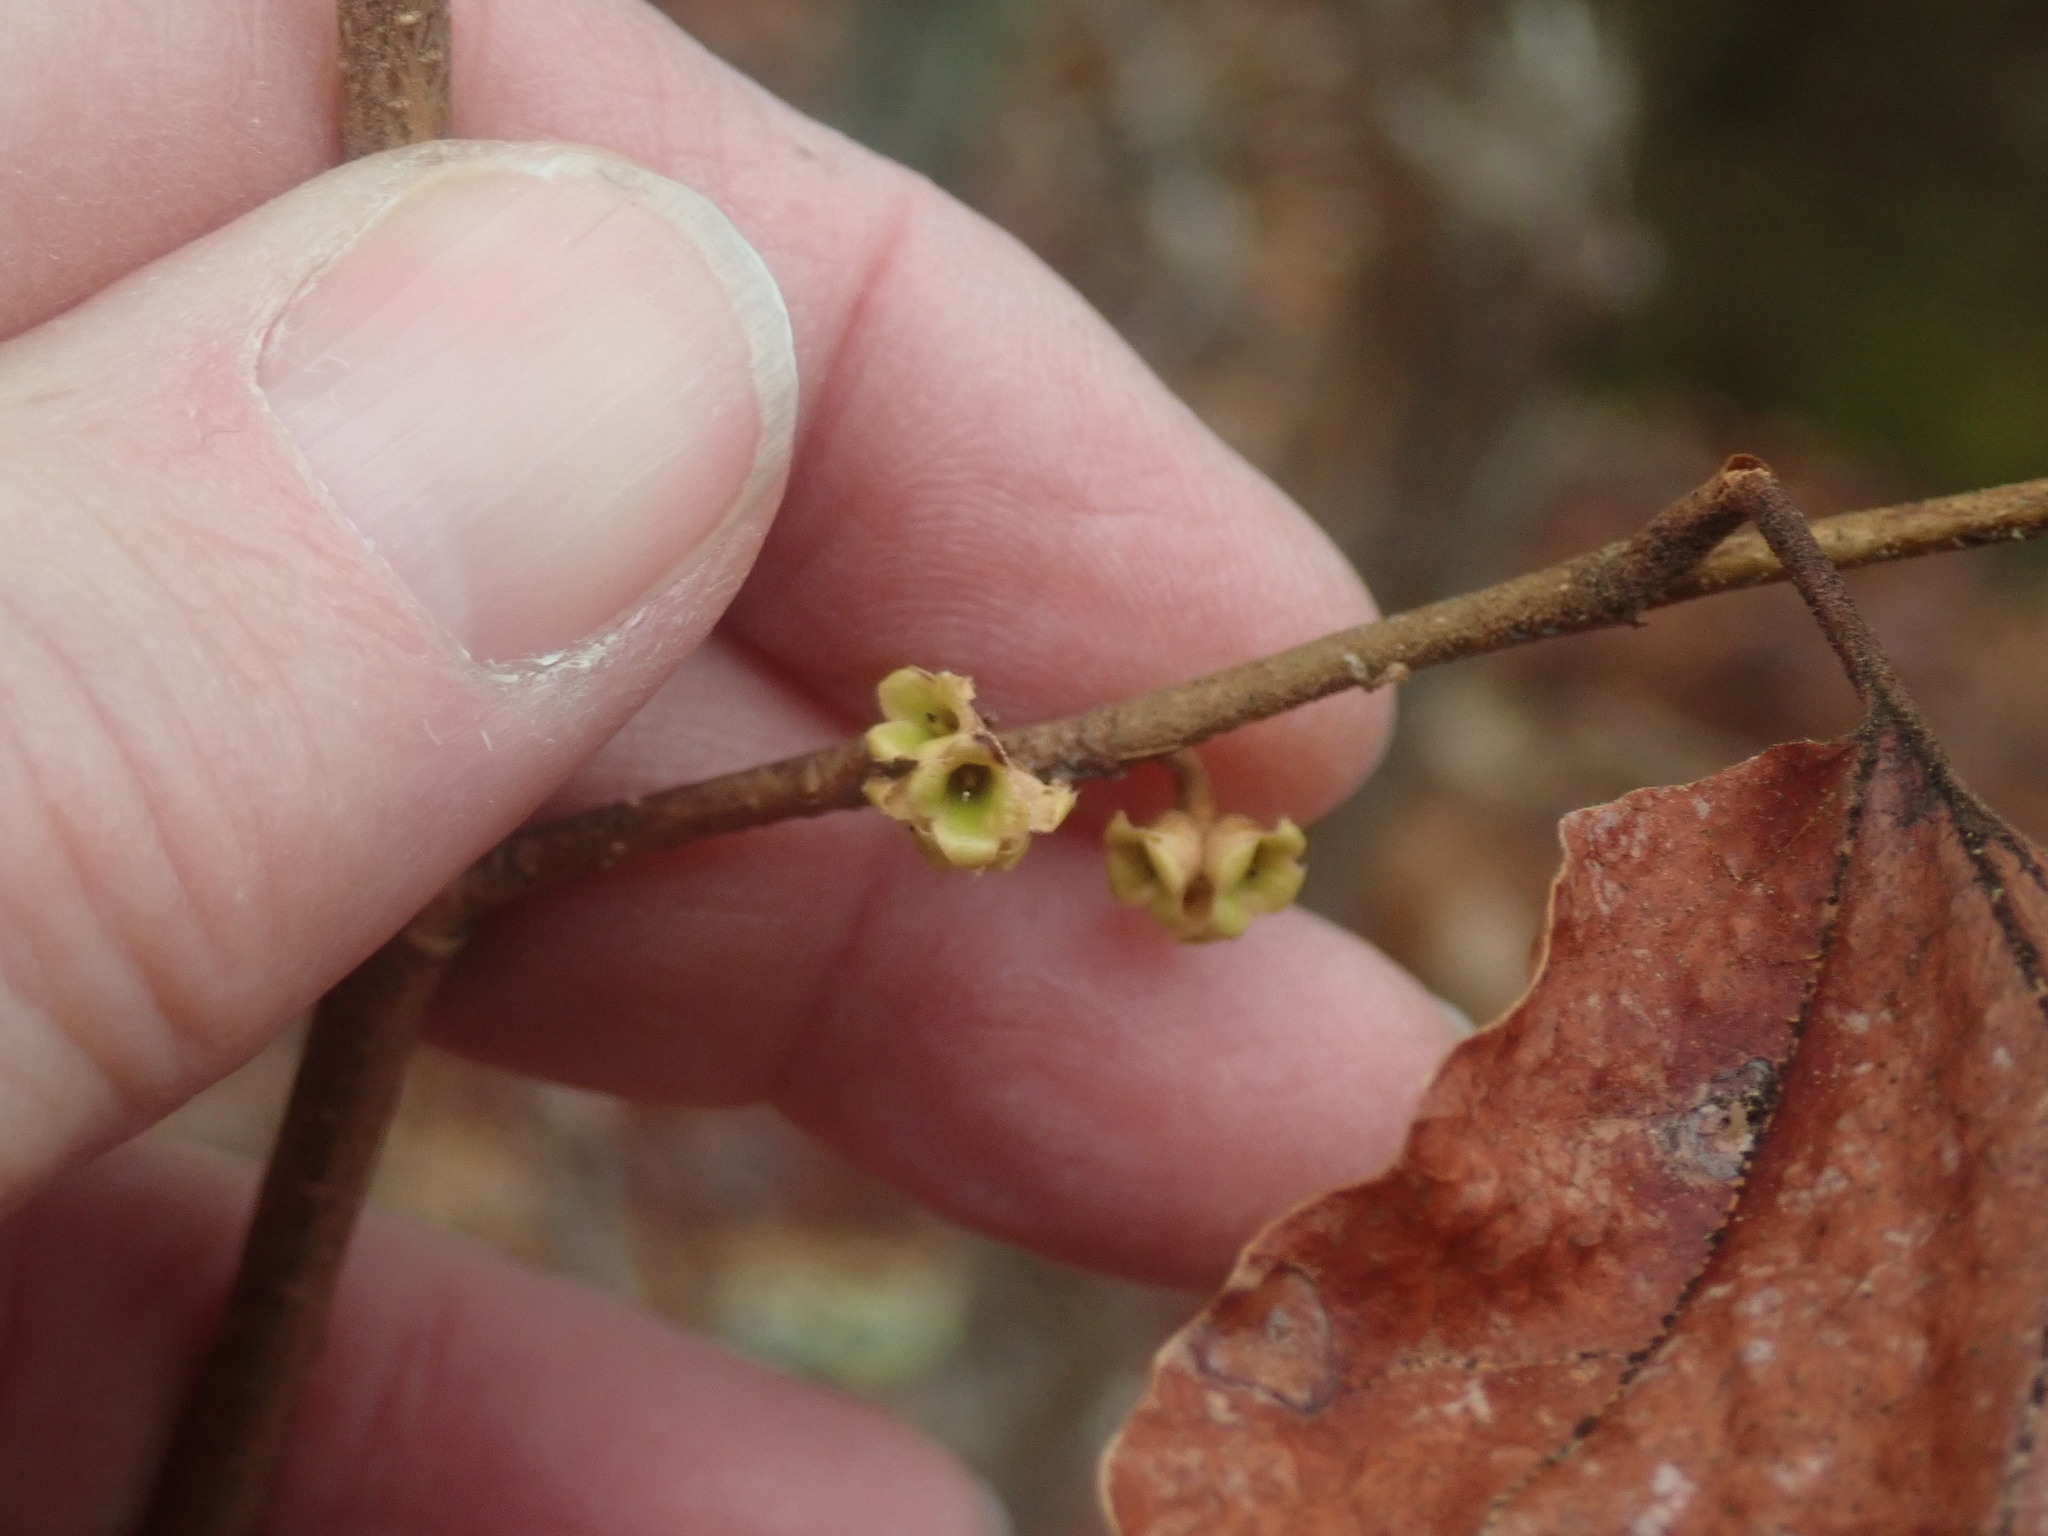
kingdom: Plantae
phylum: Tracheophyta
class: Magnoliopsida
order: Saxifragales
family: Hamamelidaceae
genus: Hamamelis
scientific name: Hamamelis virginiana
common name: Witch-hazel
